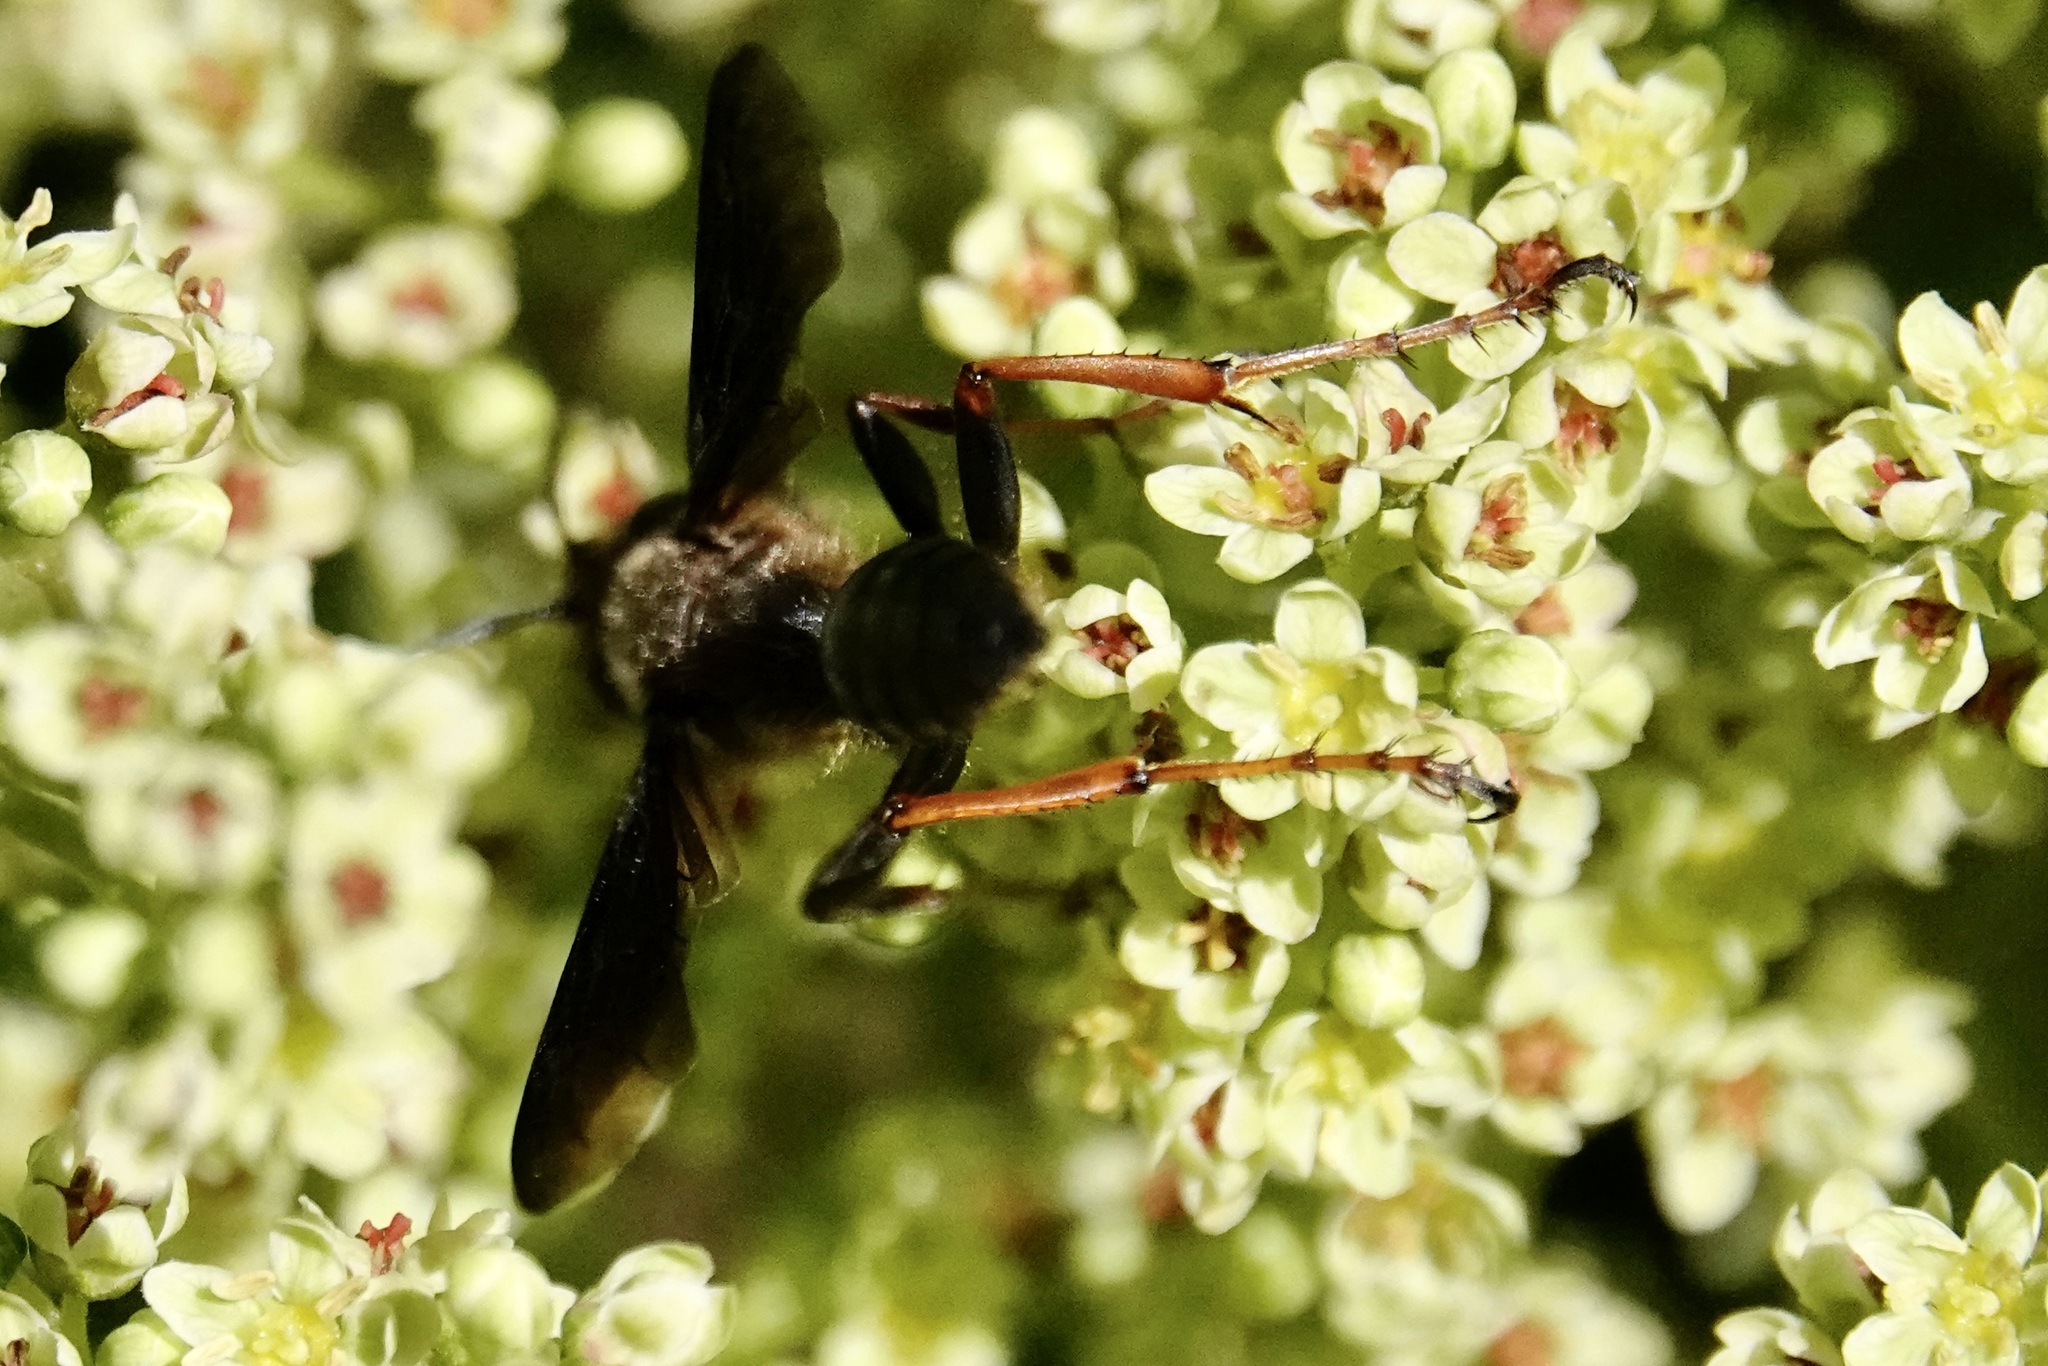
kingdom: Animalia
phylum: Arthropoda
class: Insecta
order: Hymenoptera
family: Sphecidae
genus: Isodontia
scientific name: Isodontia auripes
